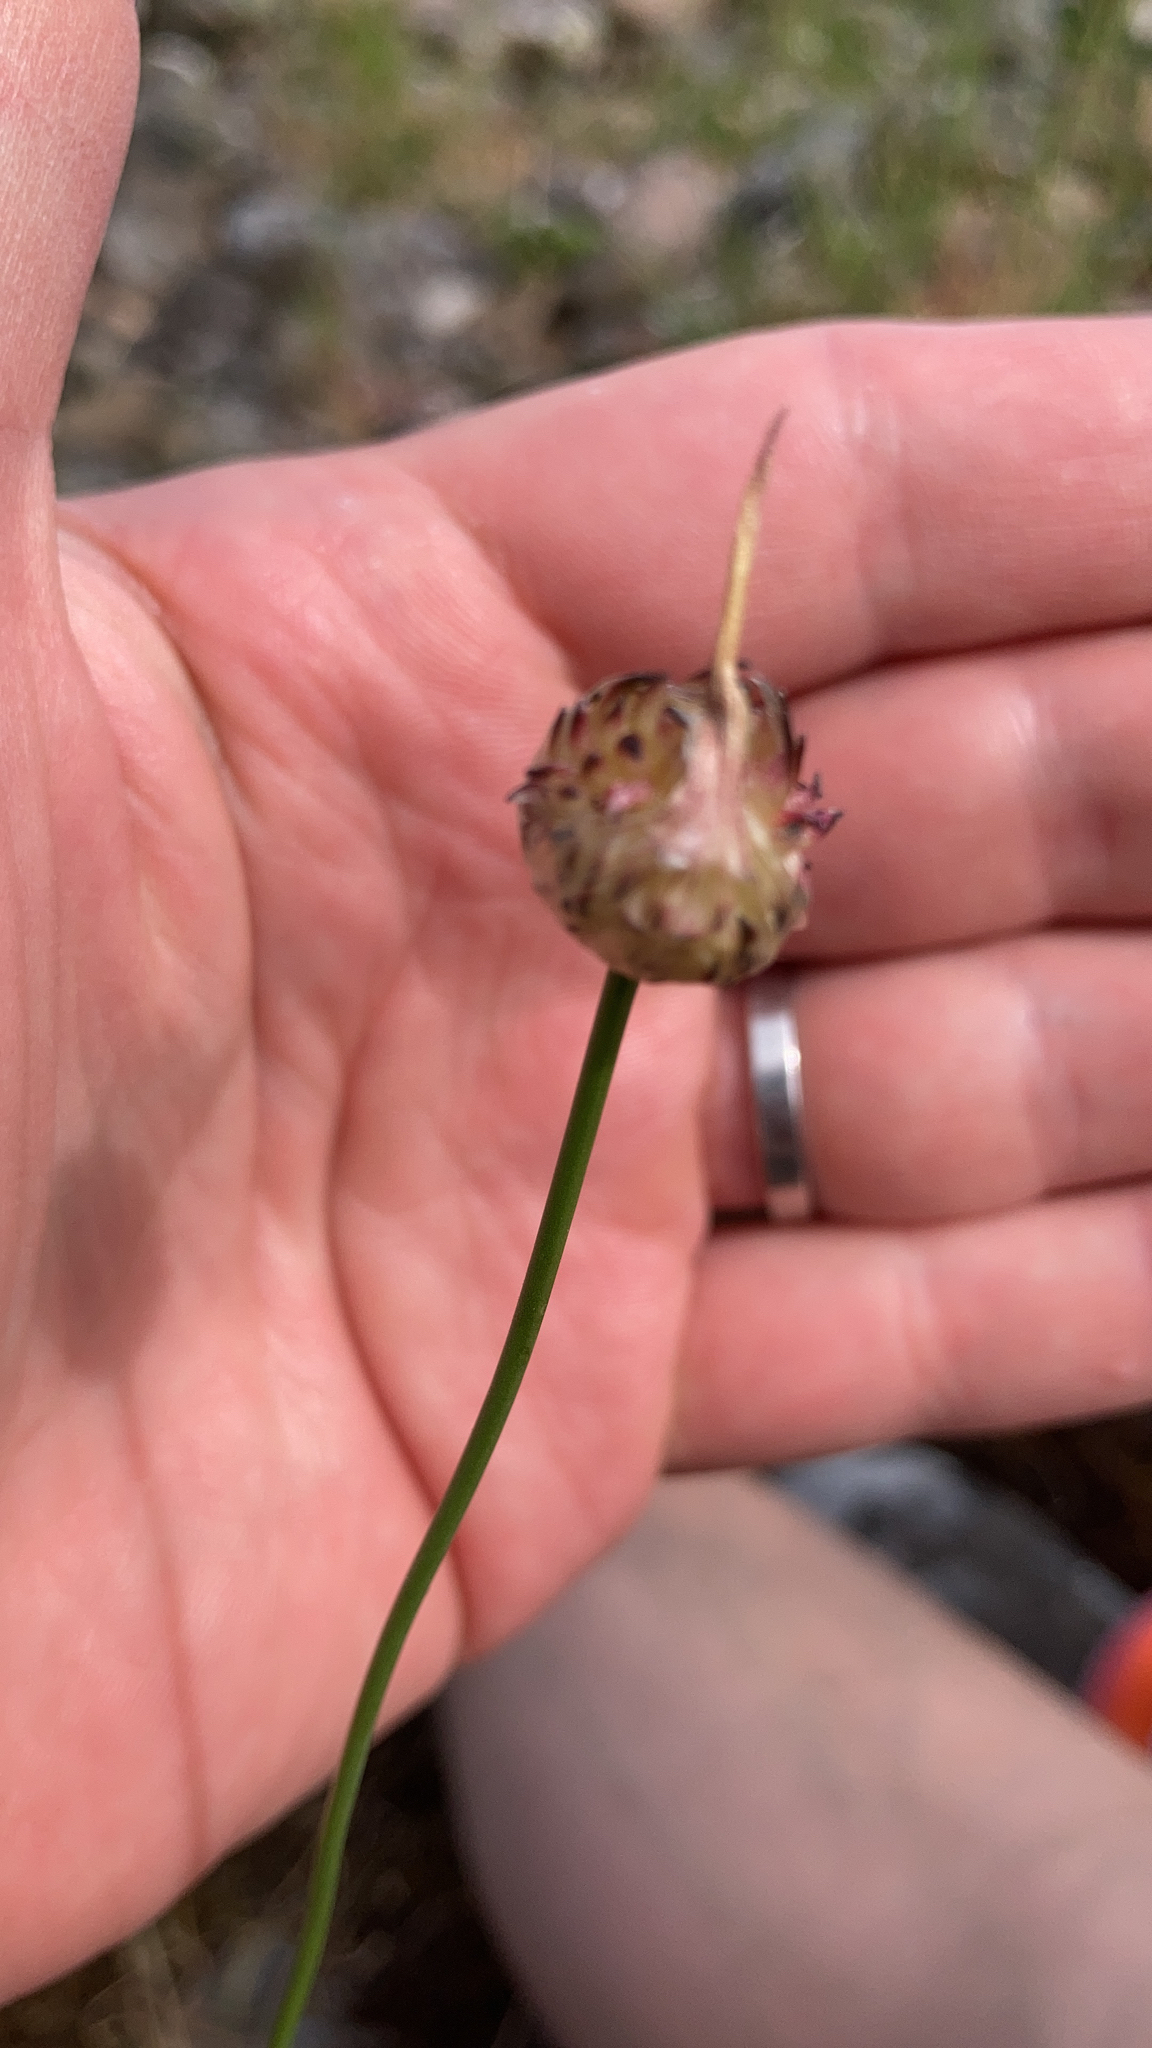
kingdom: Plantae
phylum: Tracheophyta
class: Liliopsida
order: Asparagales
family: Amaryllidaceae
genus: Allium
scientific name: Allium vineale
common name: Crow garlic
